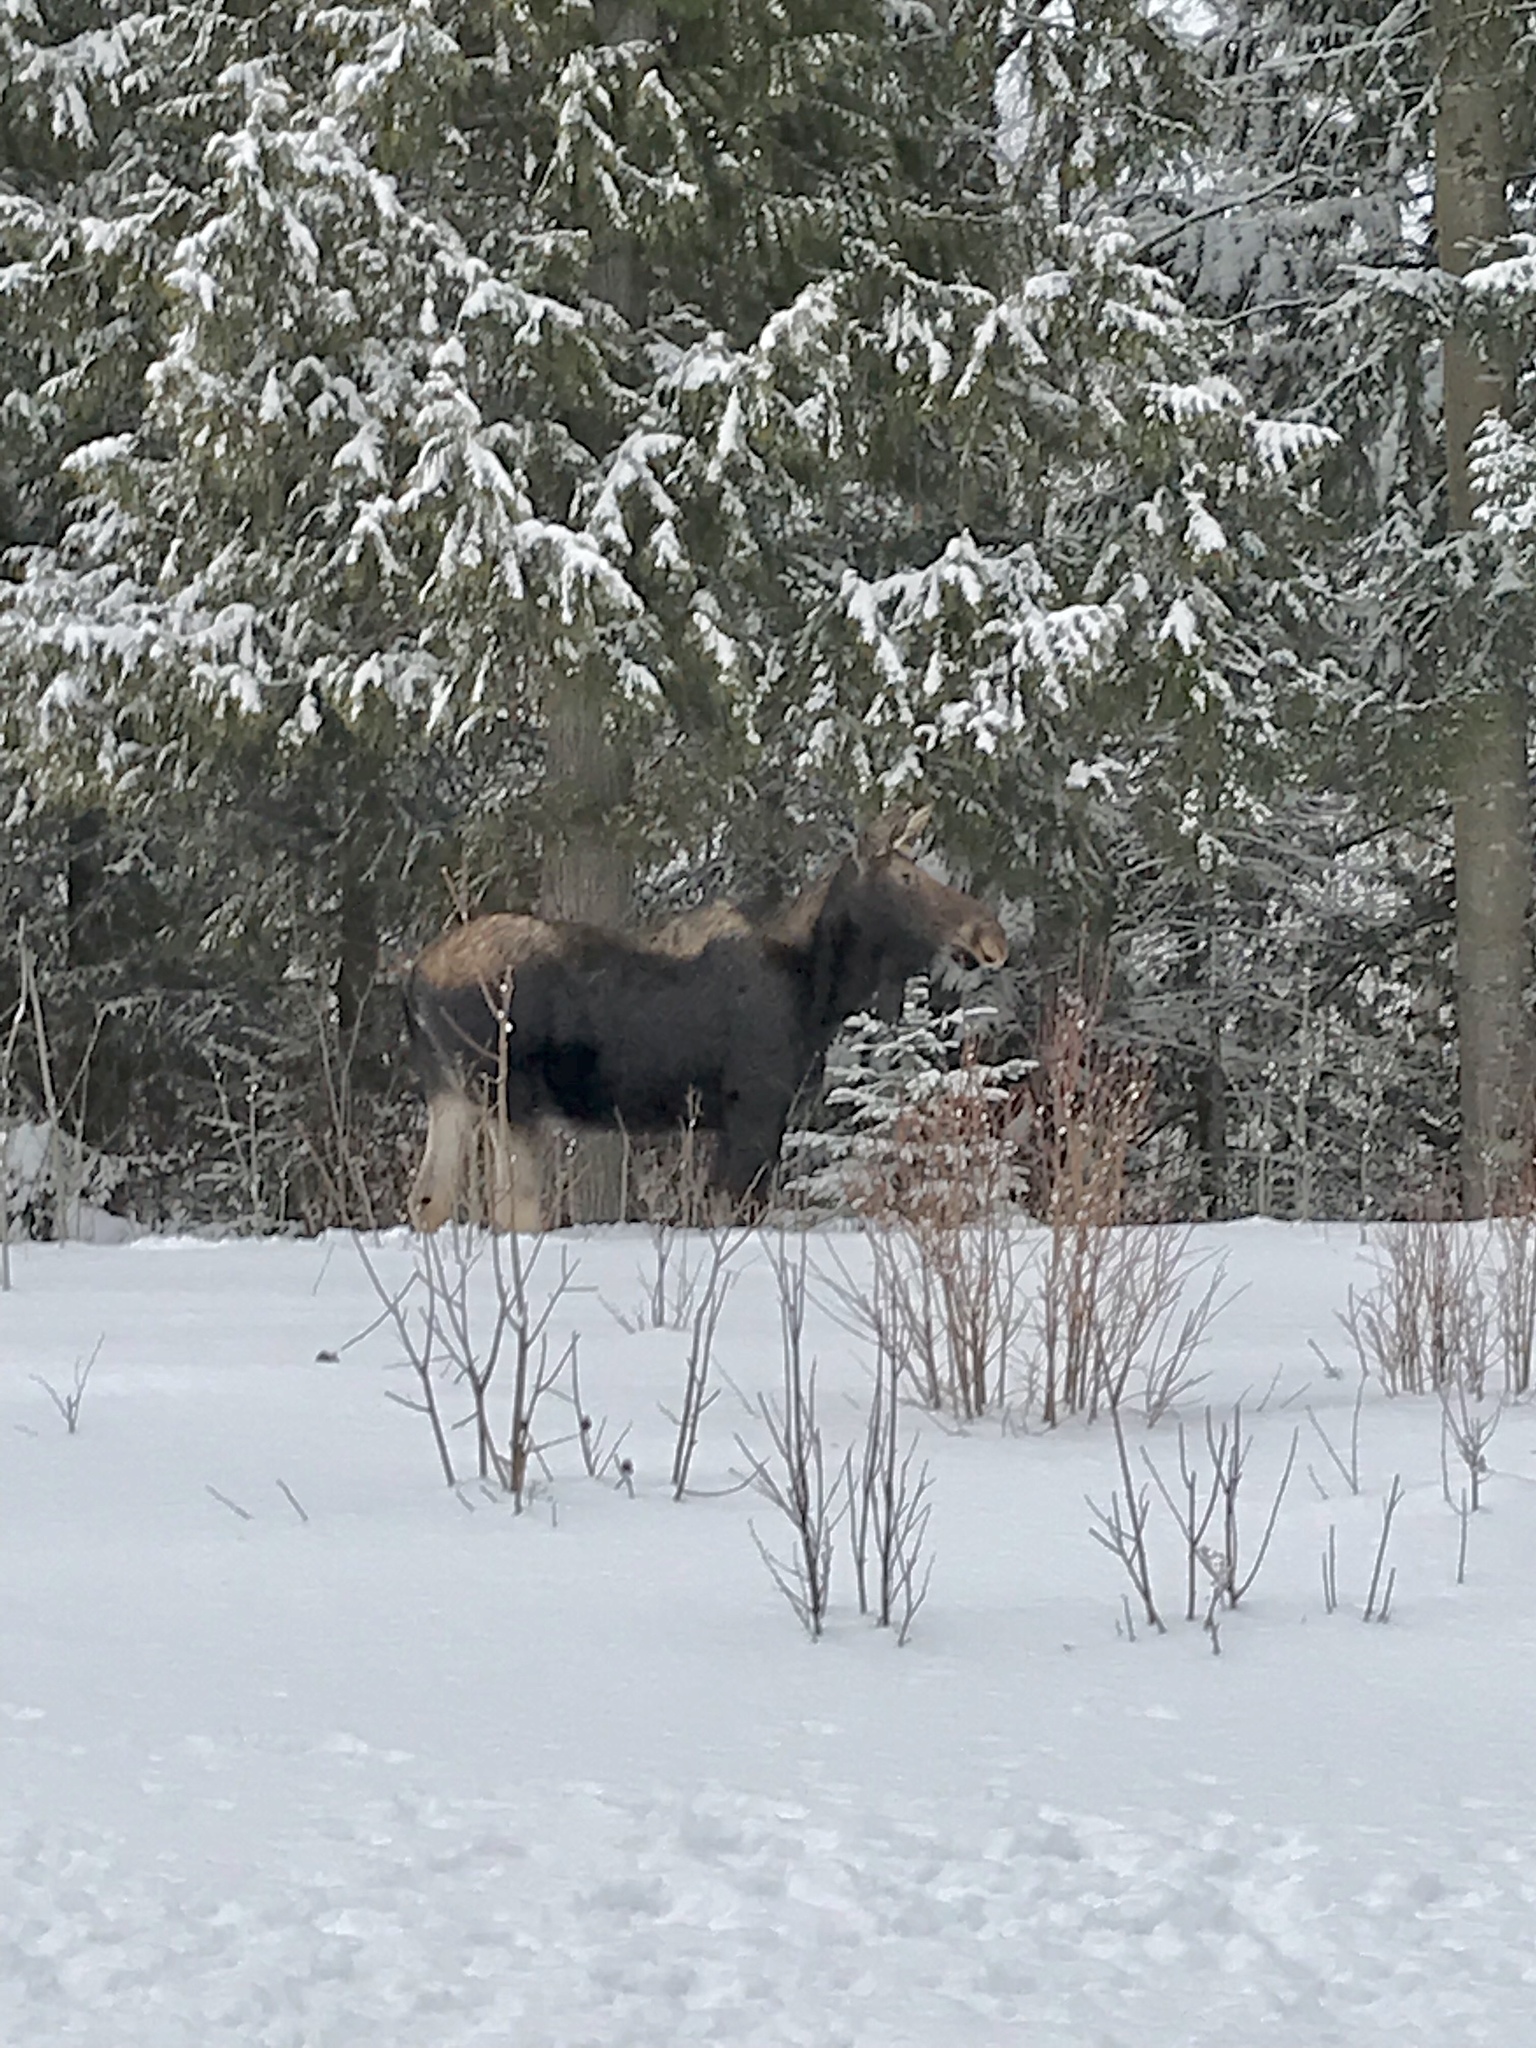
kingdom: Animalia
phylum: Chordata
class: Mammalia
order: Artiodactyla
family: Cervidae
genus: Alces
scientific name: Alces alces
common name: Moose
